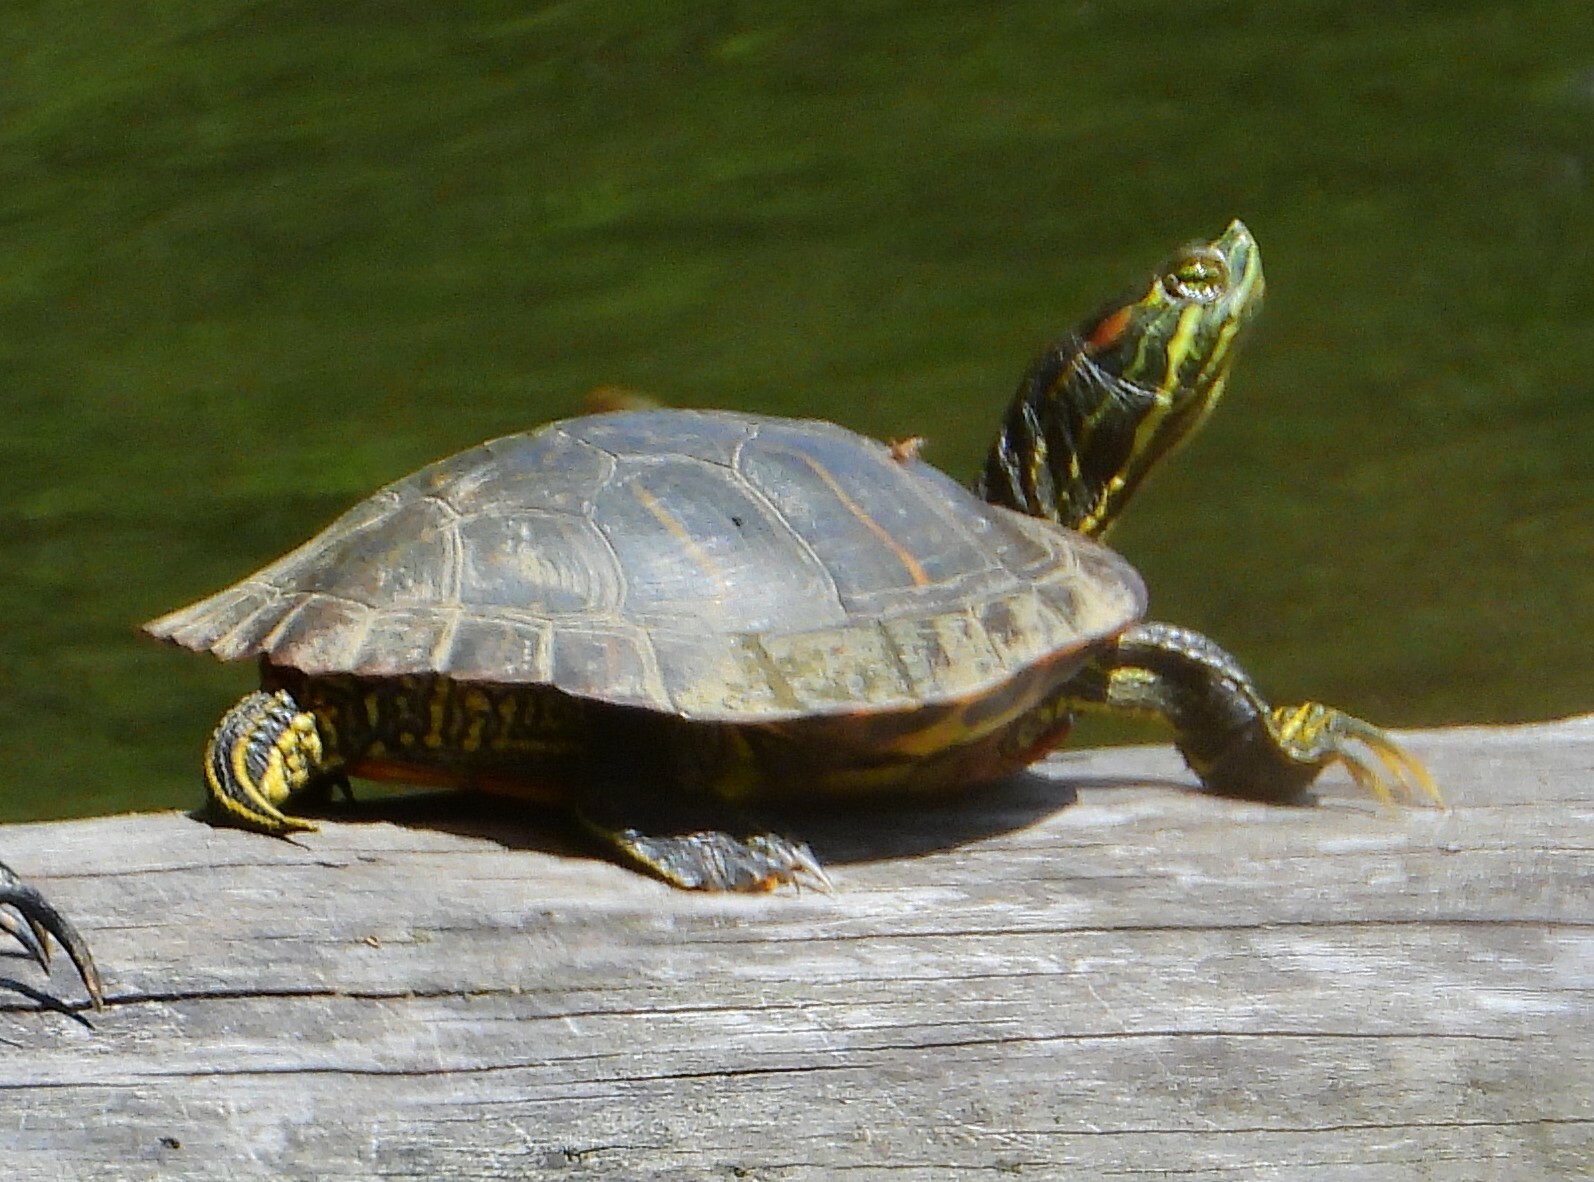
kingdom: Animalia
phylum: Chordata
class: Testudines
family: Emydidae
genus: Trachemys
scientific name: Trachemys scripta
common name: Slider
